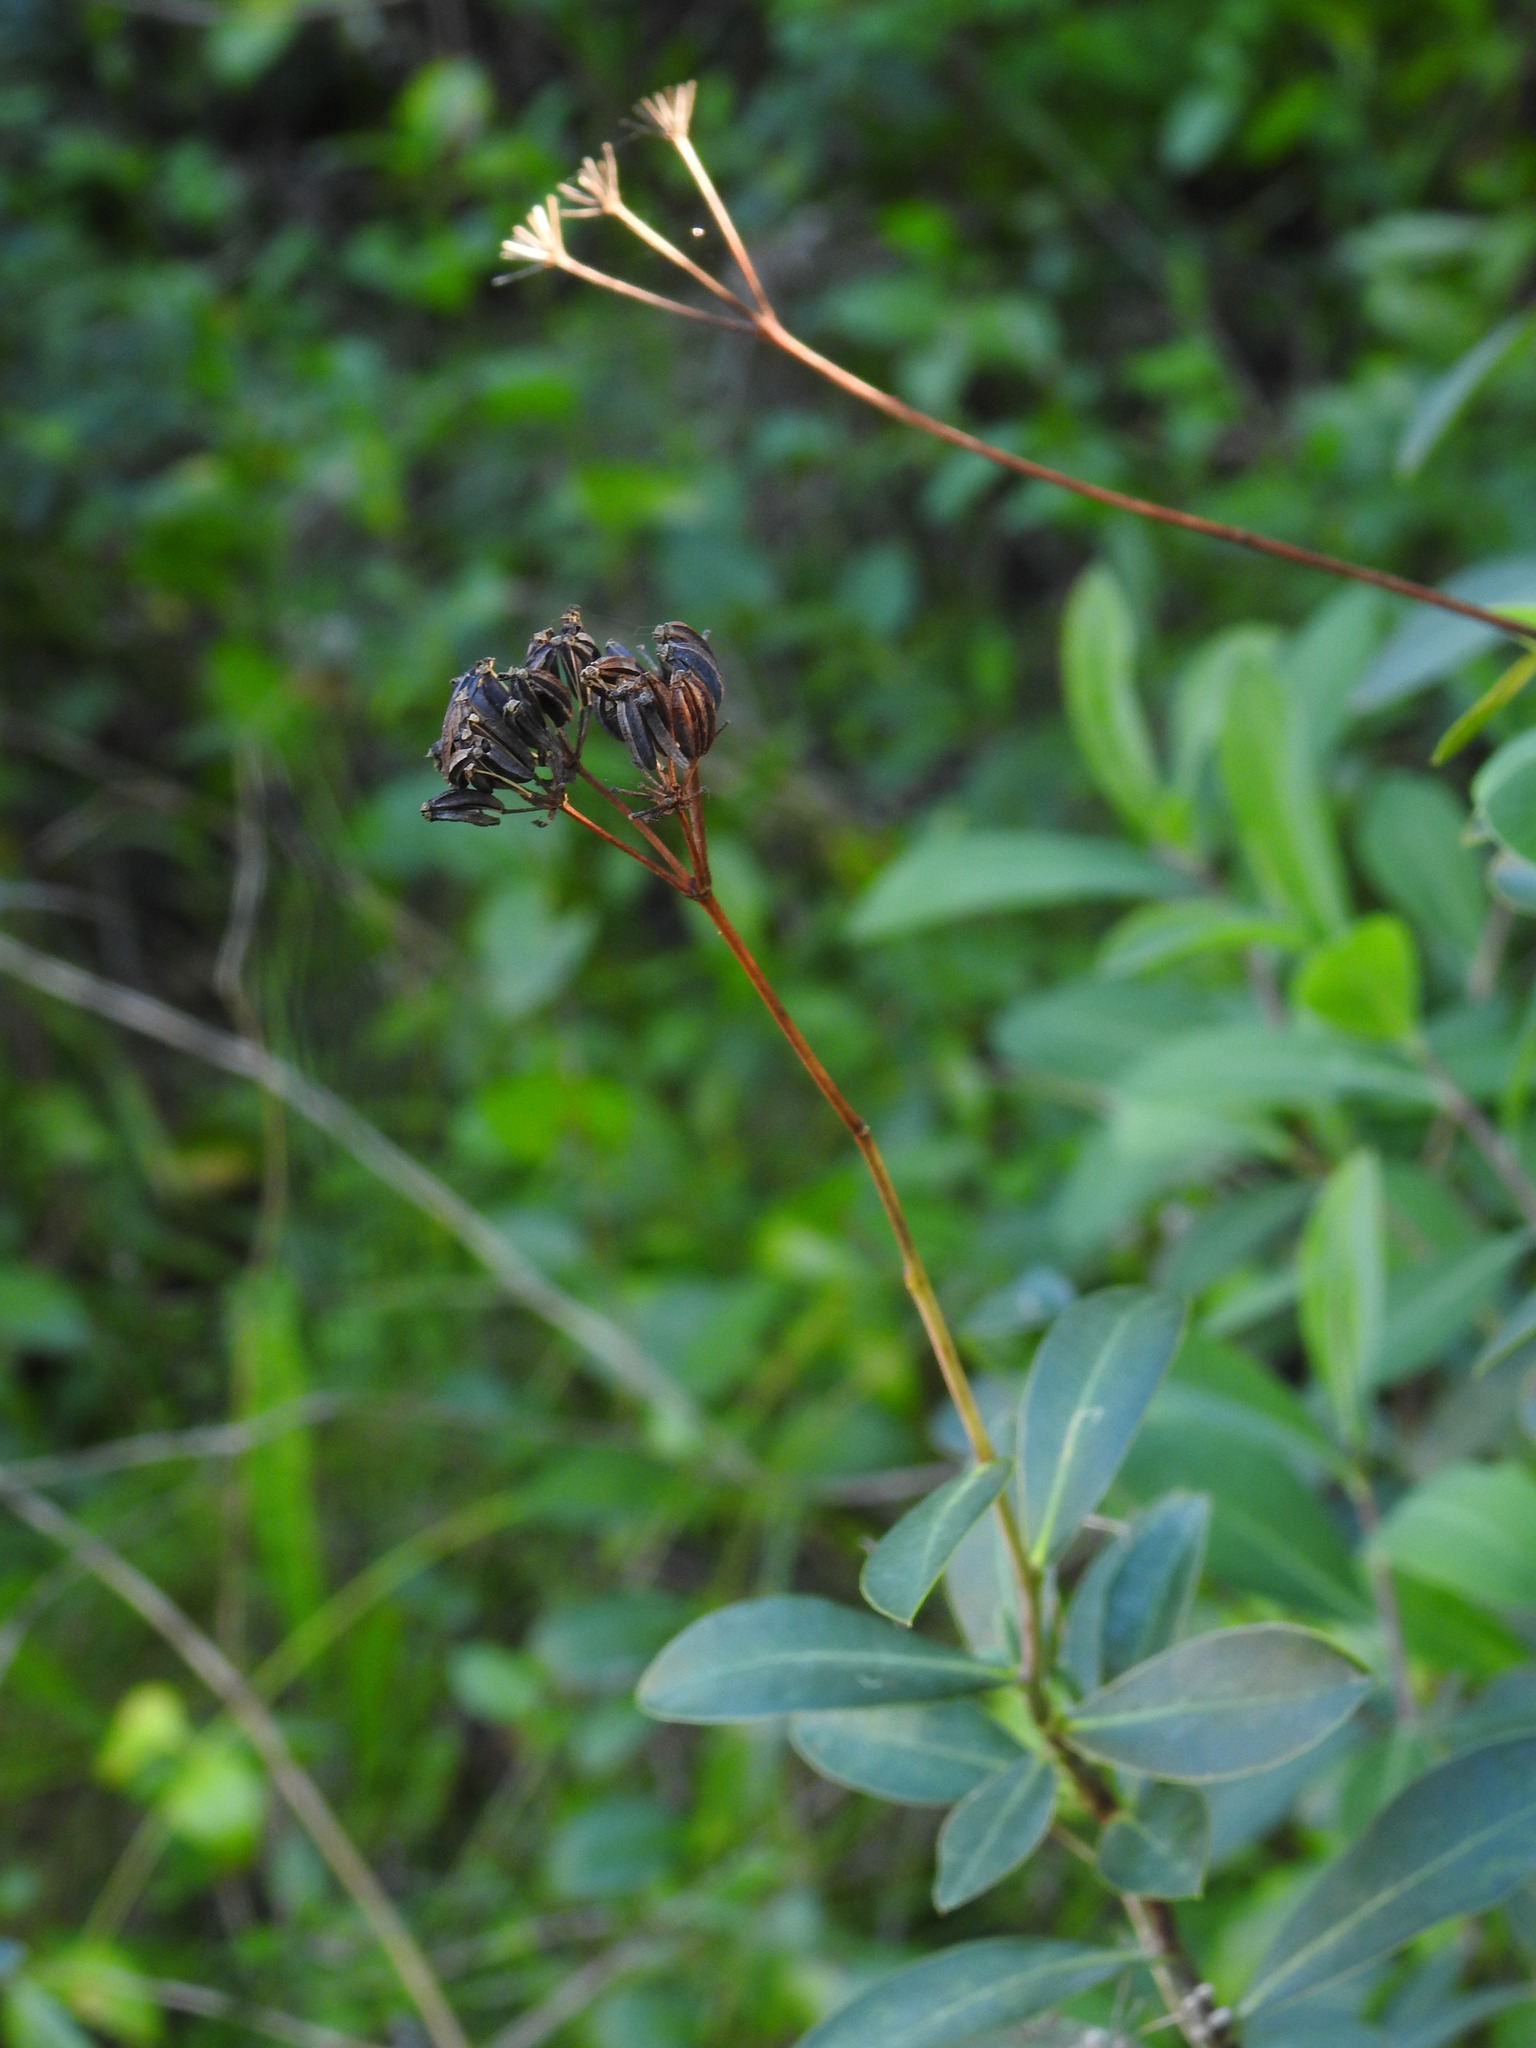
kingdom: Plantae
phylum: Tracheophyta
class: Magnoliopsida
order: Apiales
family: Apiaceae
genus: Bupleurum
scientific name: Bupleurum fruticosum
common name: Shrubby hare's-ear
